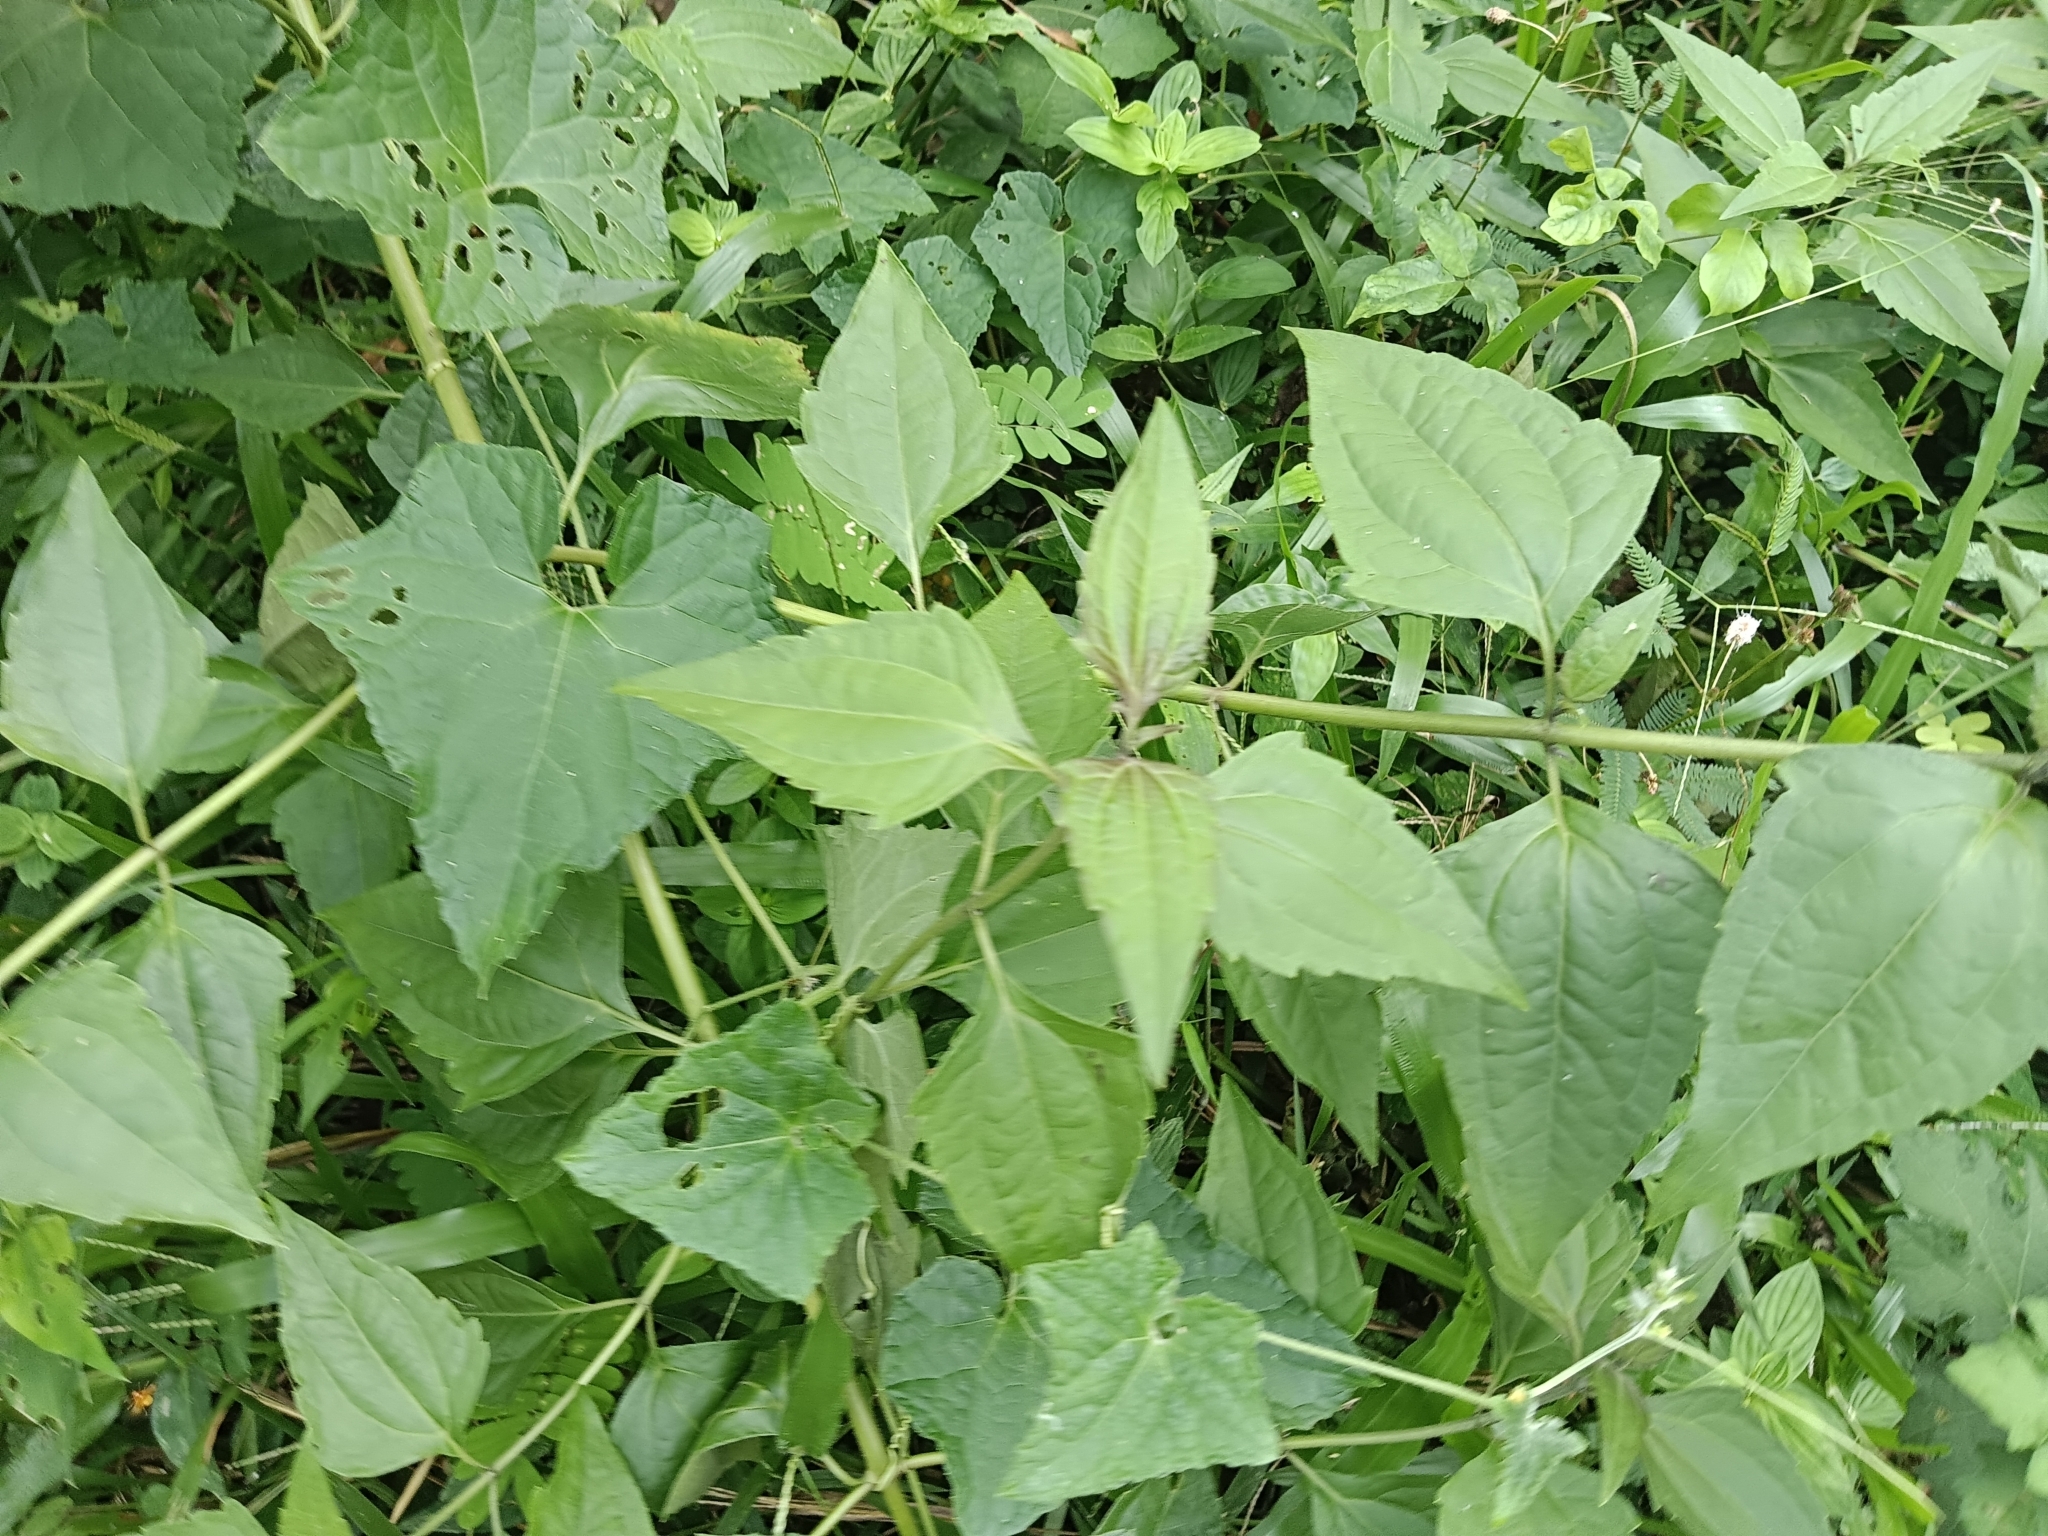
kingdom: Plantae
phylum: Tracheophyta
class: Magnoliopsida
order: Asterales
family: Asteraceae
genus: Chromolaena
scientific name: Chromolaena odorata
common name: Siamweed
